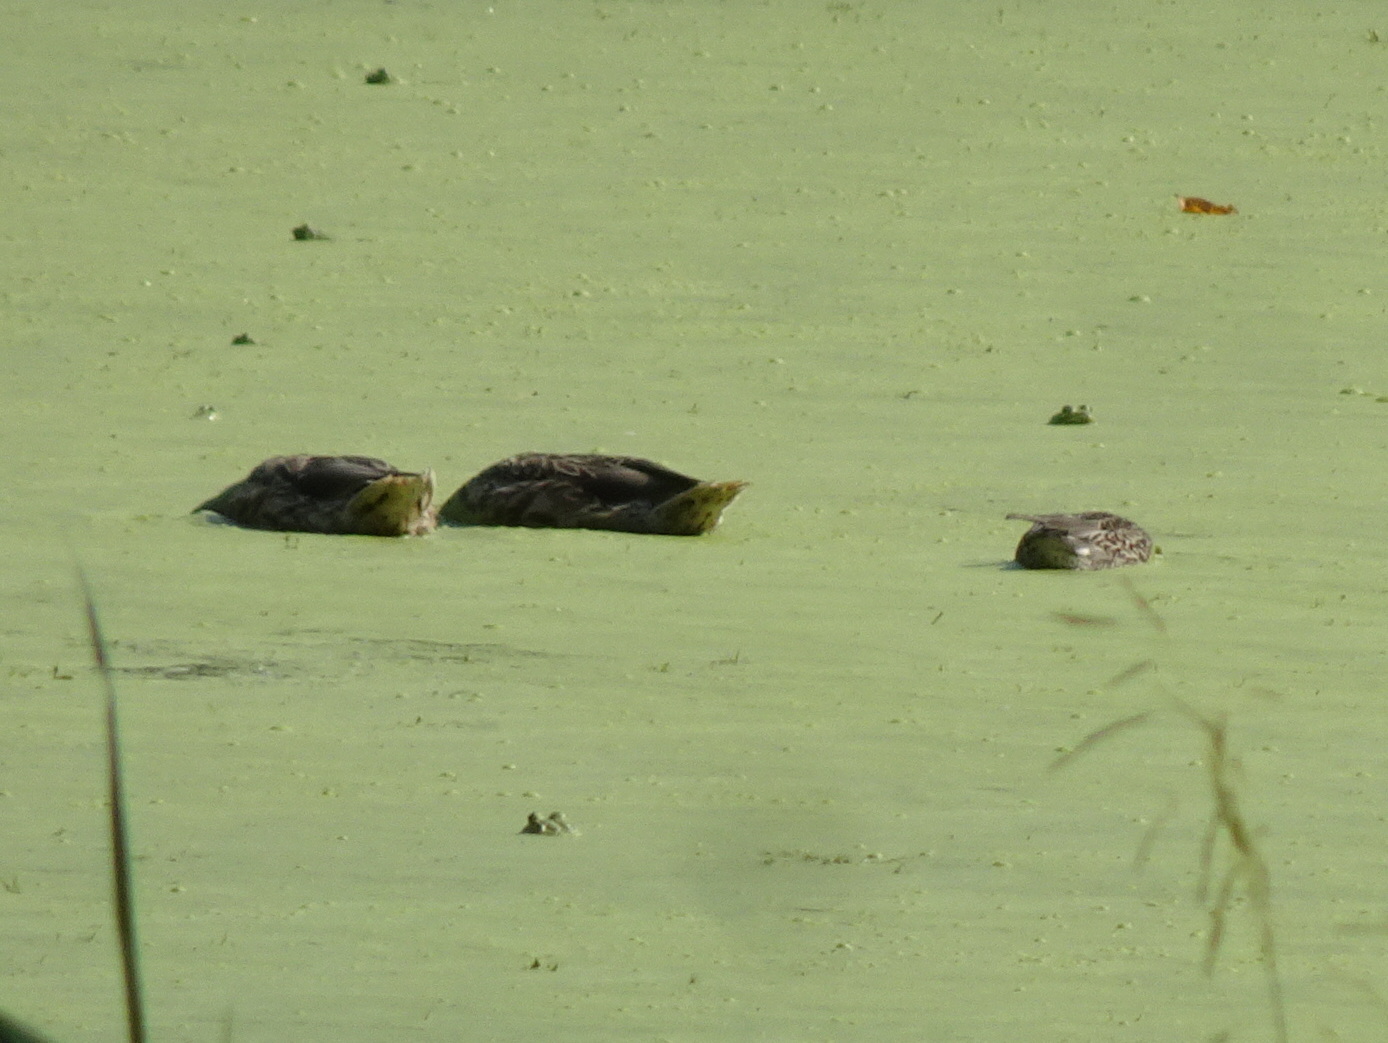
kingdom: Animalia
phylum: Chordata
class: Aves
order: Anseriformes
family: Anatidae
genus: Anas
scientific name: Anas crecca
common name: Eurasian teal
